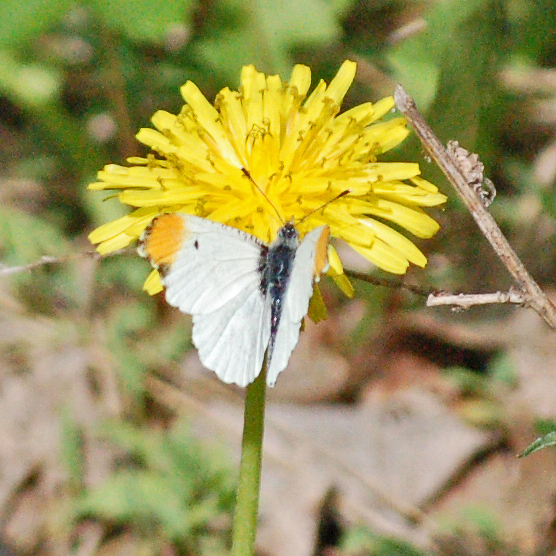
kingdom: Animalia
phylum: Arthropoda
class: Insecta
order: Lepidoptera
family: Pieridae
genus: Anthocharis
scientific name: Anthocharis midea
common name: Falcate orangetip
